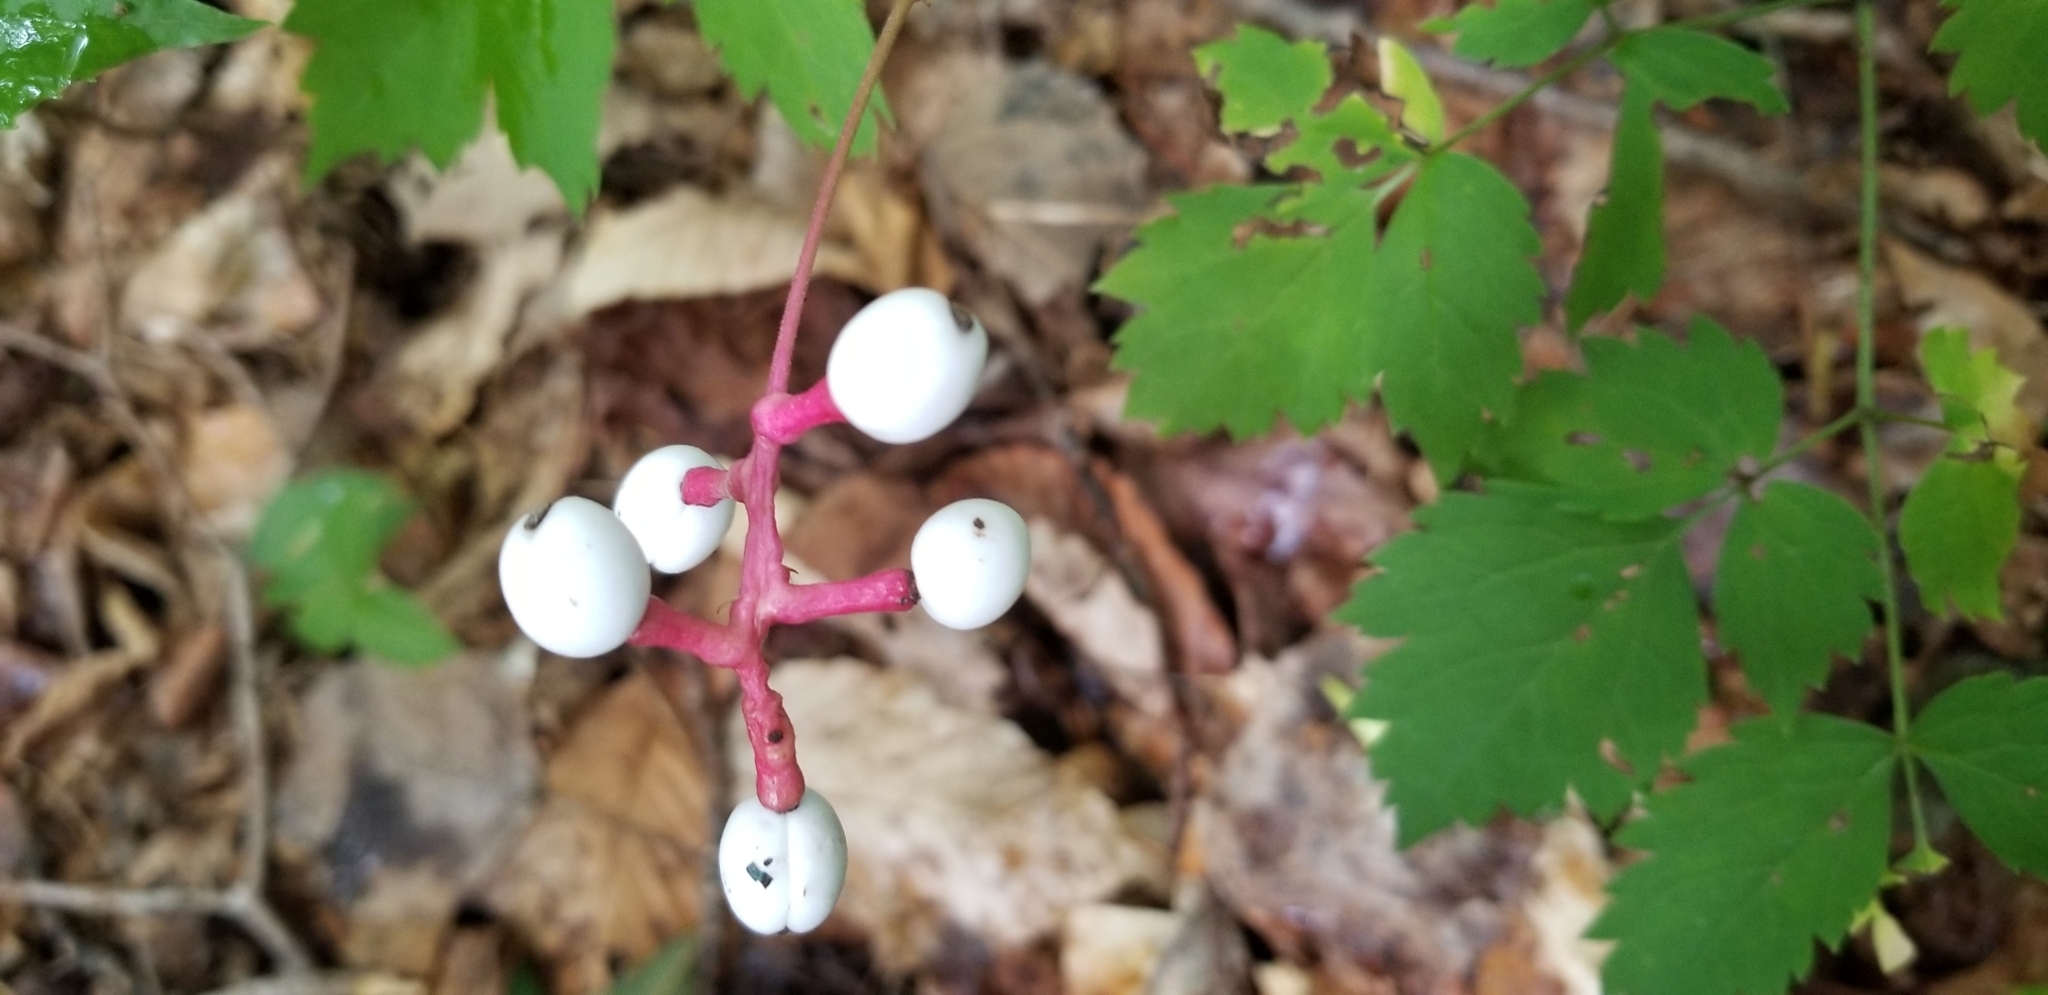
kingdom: Plantae
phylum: Tracheophyta
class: Magnoliopsida
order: Ranunculales
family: Ranunculaceae
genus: Actaea
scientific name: Actaea pachypoda
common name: Doll's-eyes
